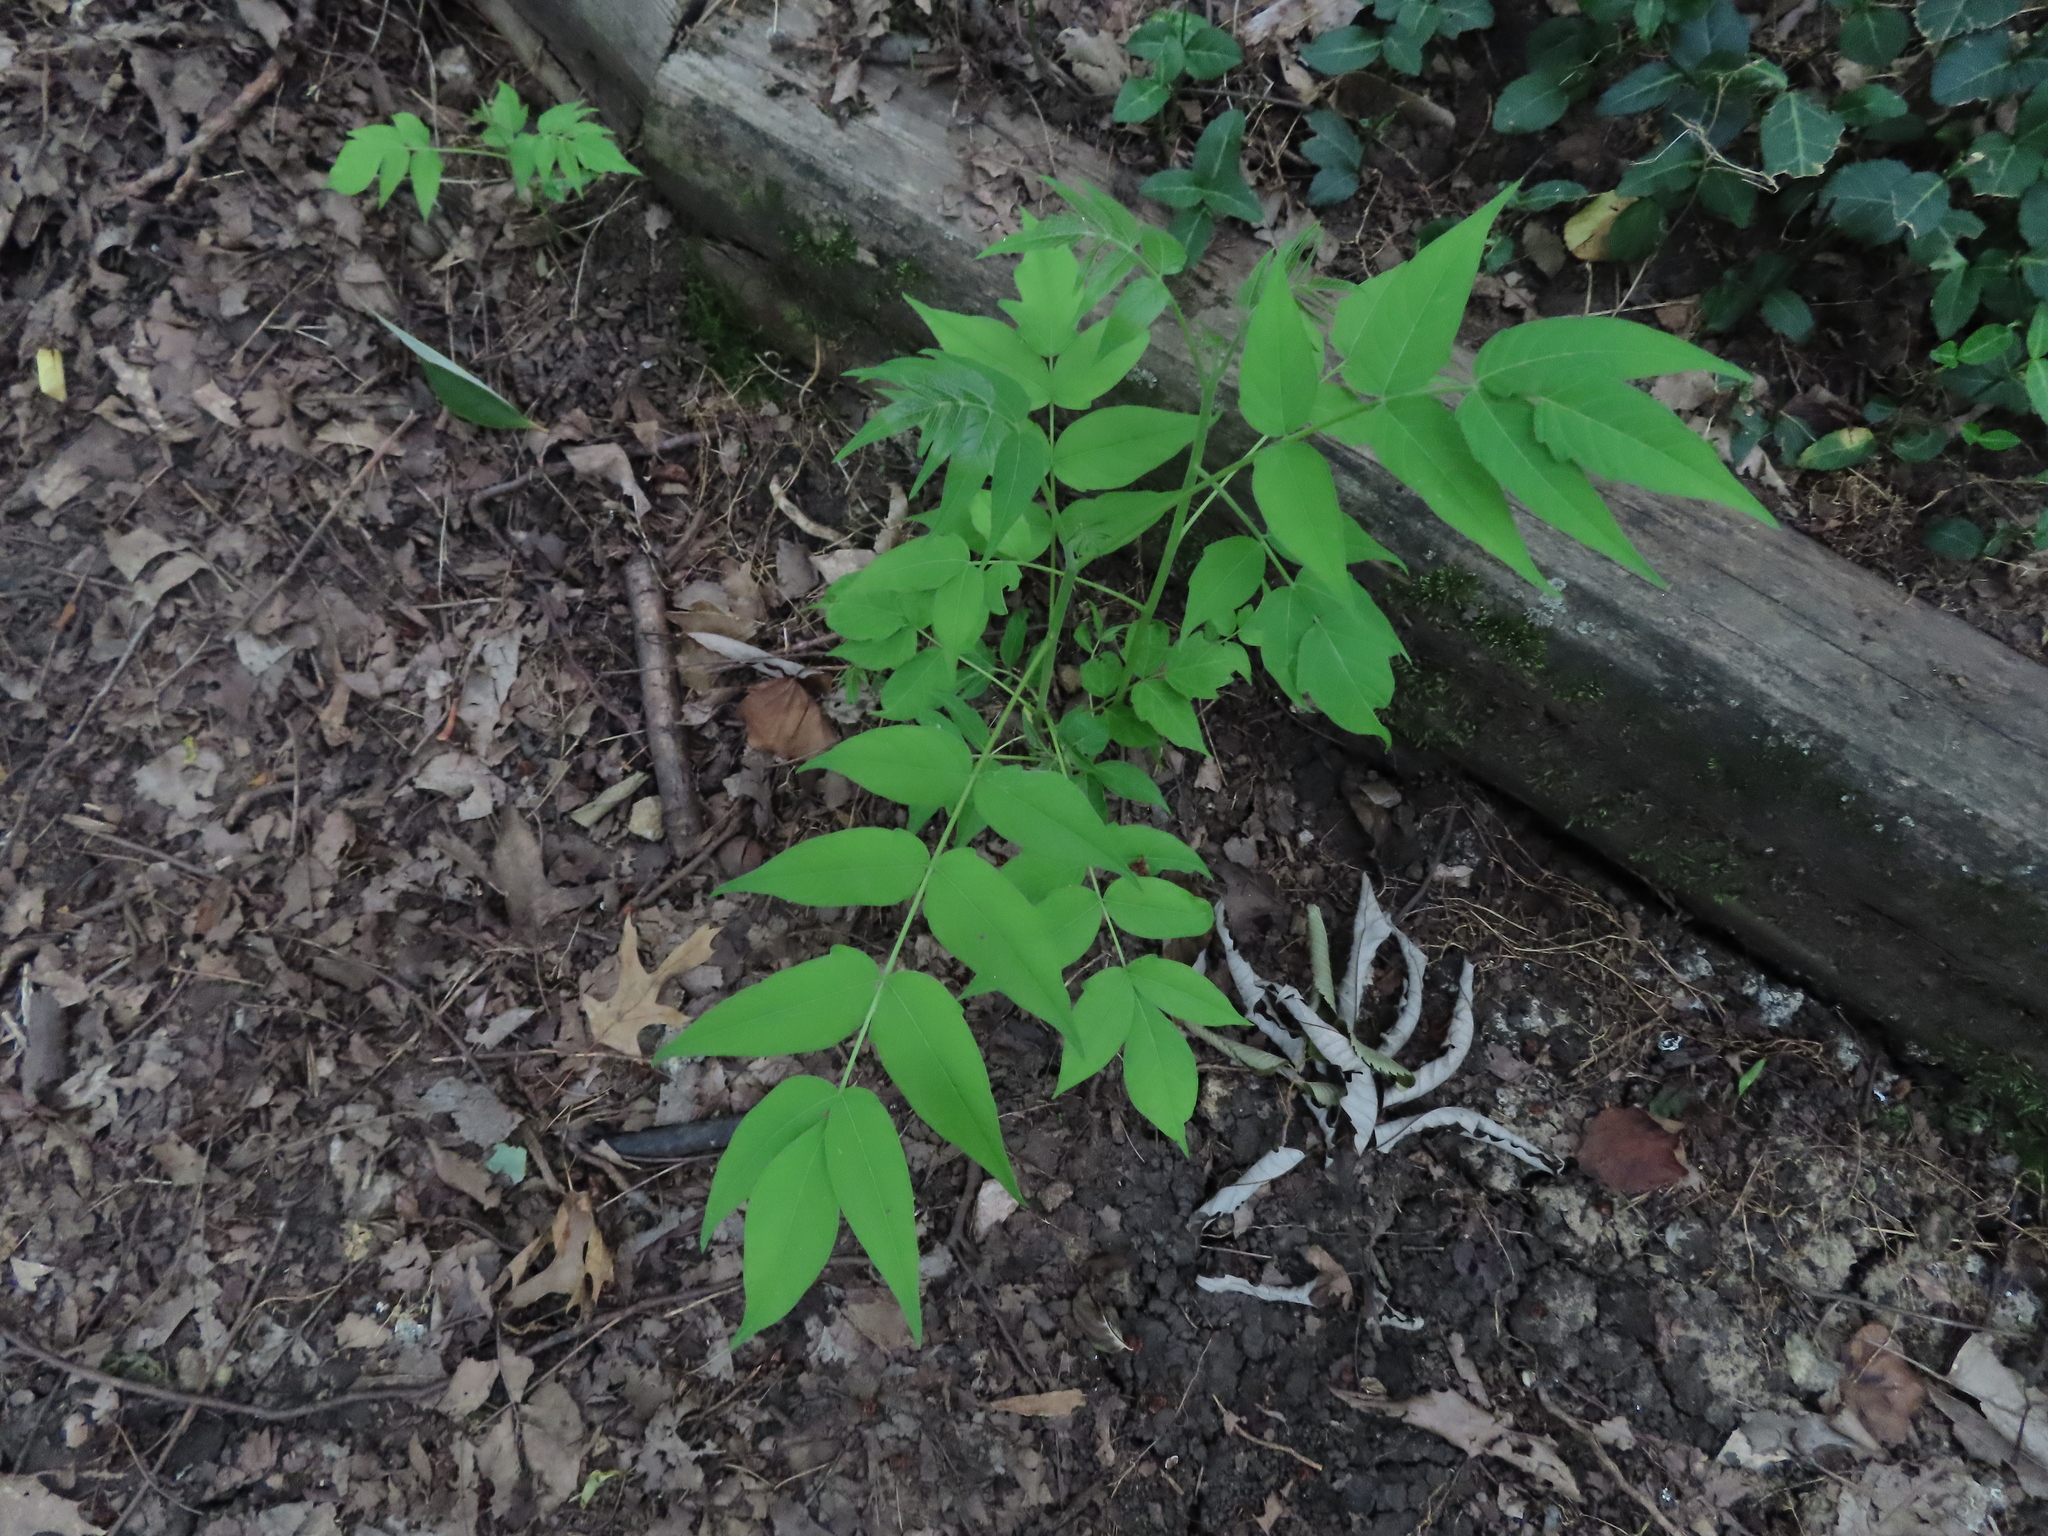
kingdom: Plantae
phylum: Tracheophyta
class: Magnoliopsida
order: Sapindales
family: Simaroubaceae
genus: Ailanthus
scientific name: Ailanthus altissima
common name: Tree-of-heaven
